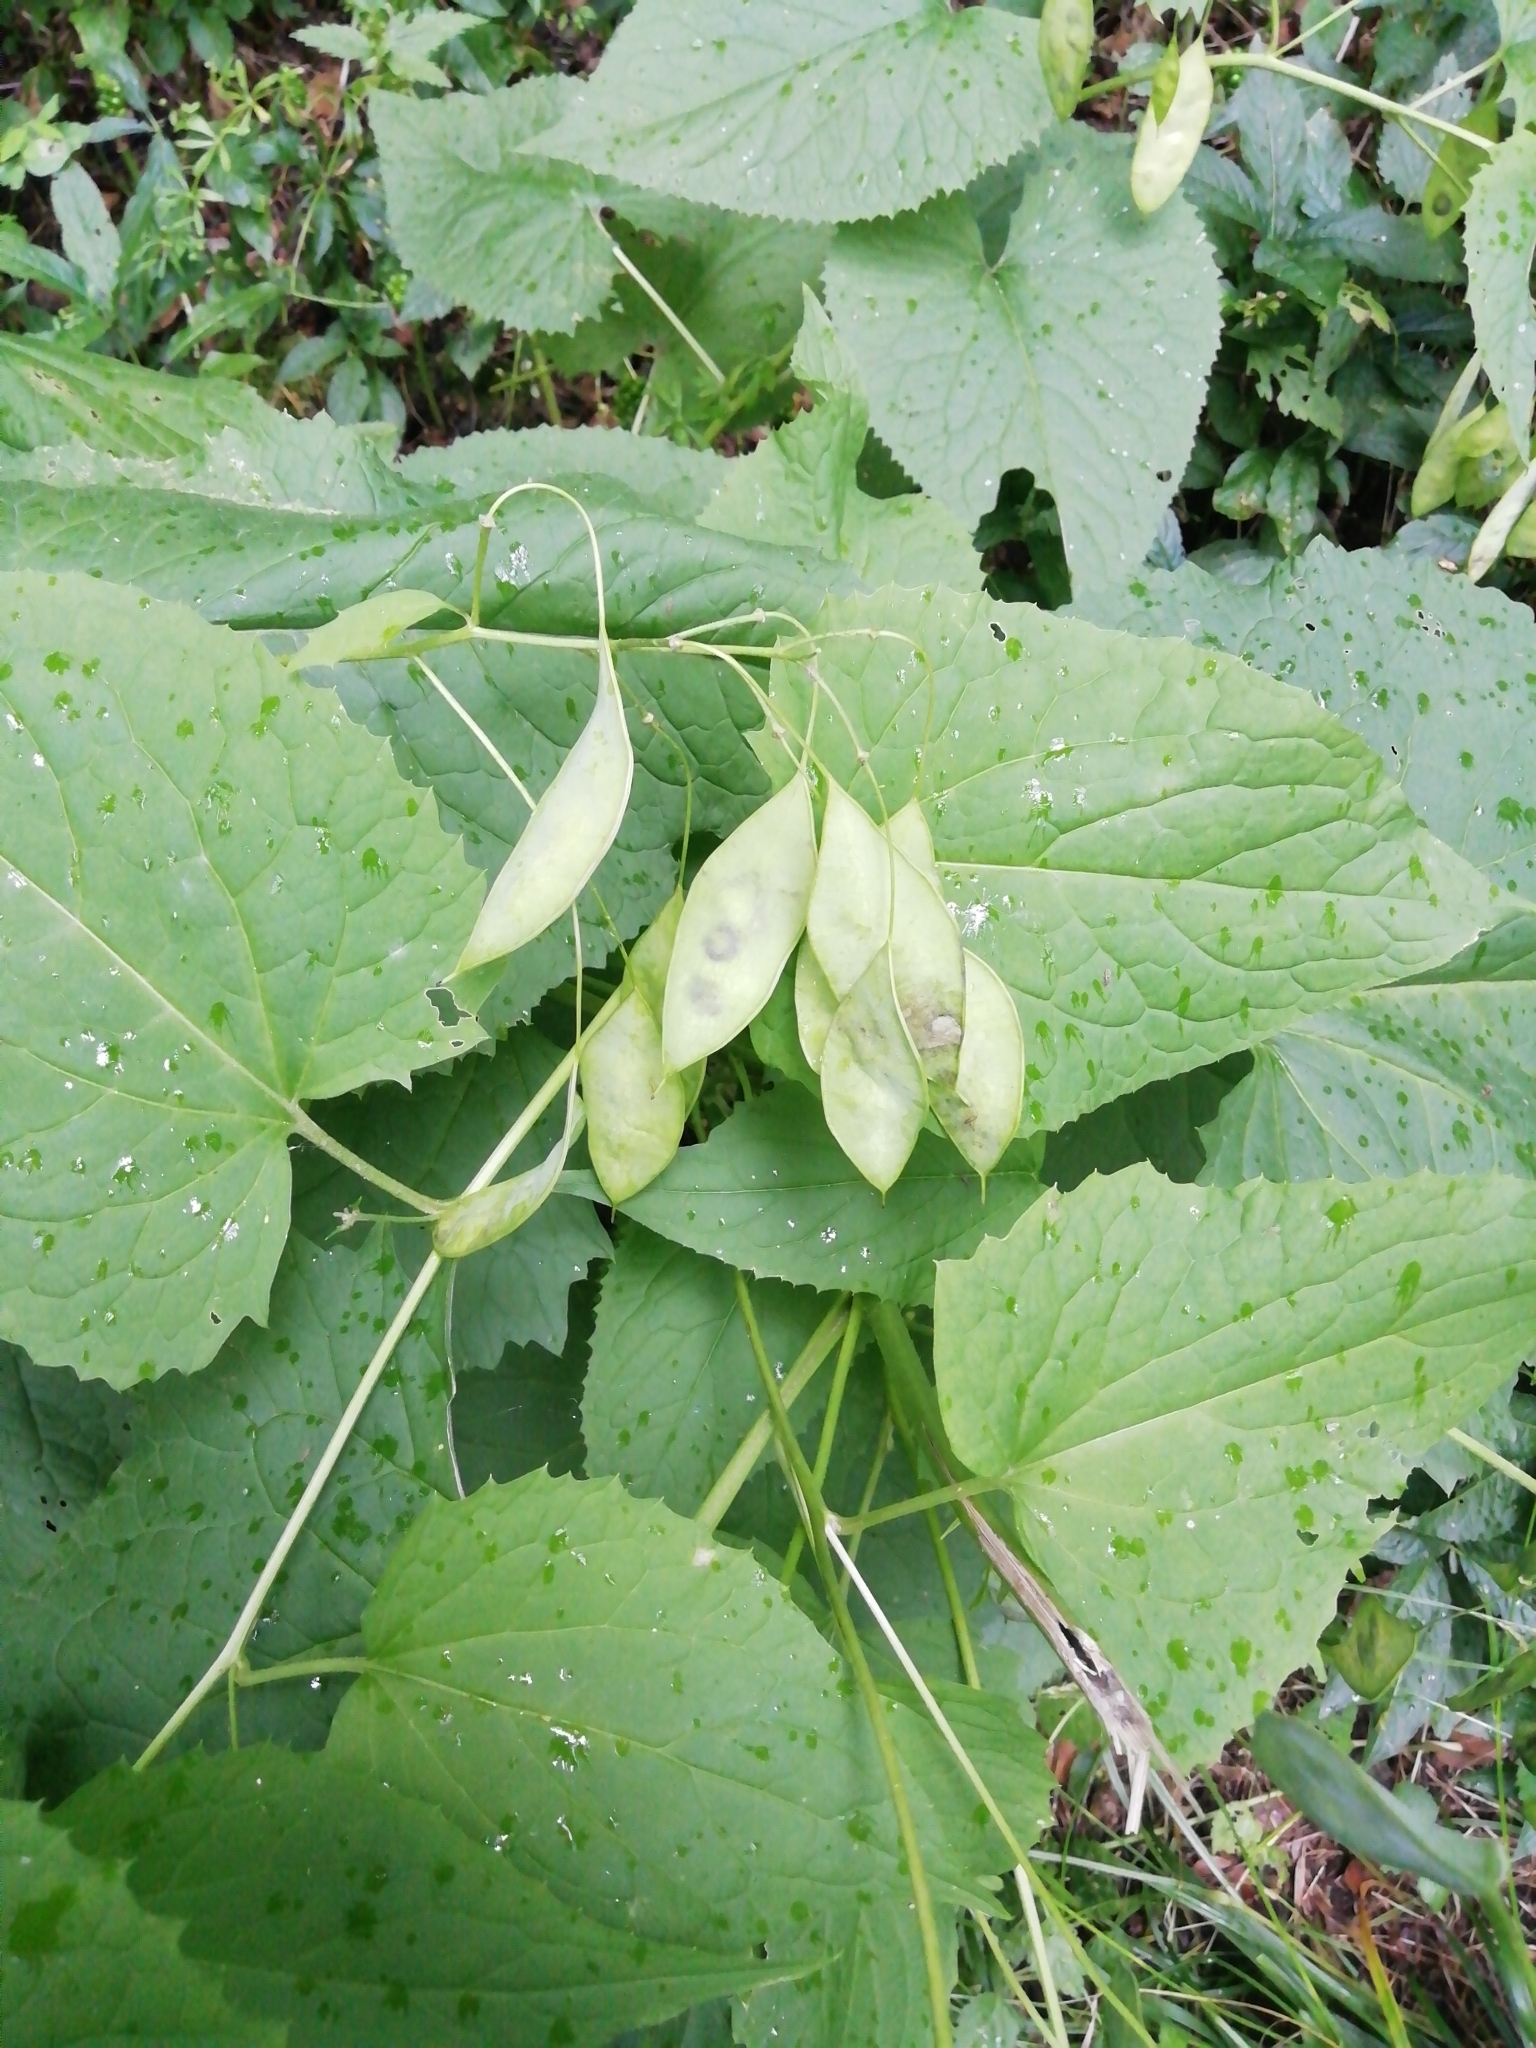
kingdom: Plantae
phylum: Tracheophyta
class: Magnoliopsida
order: Brassicales
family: Brassicaceae
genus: Lunaria
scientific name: Lunaria rediviva
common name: Perennial honesty
